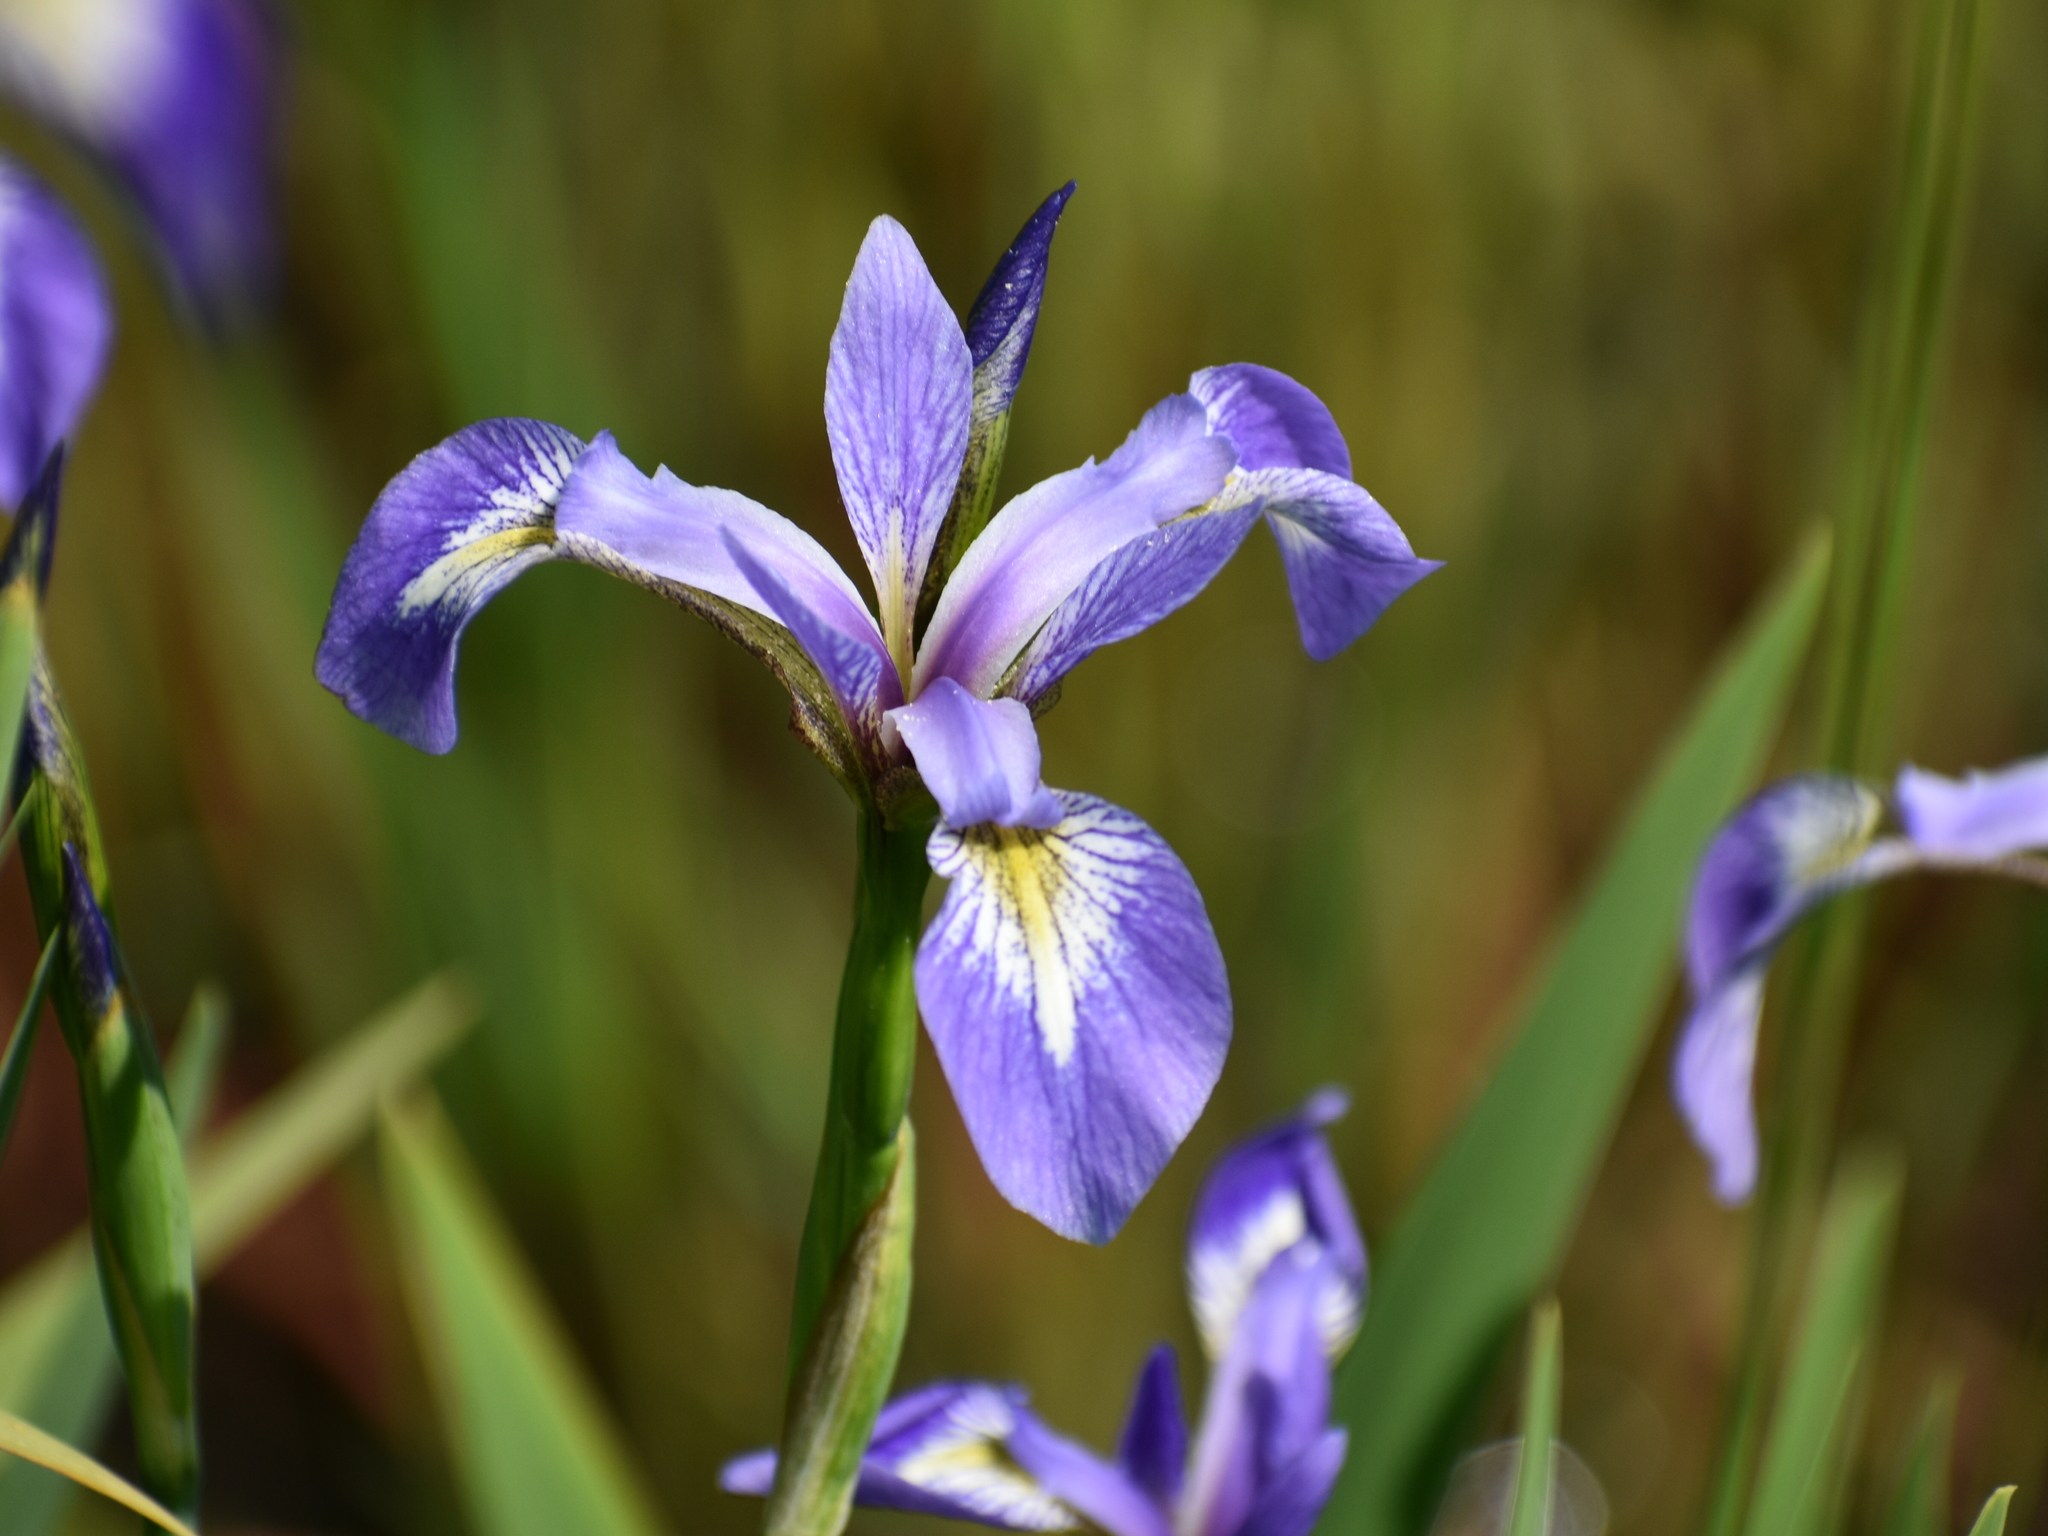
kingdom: Plantae
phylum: Tracheophyta
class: Liliopsida
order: Asparagales
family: Iridaceae
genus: Iris
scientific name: Iris versicolor
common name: Purple iris
